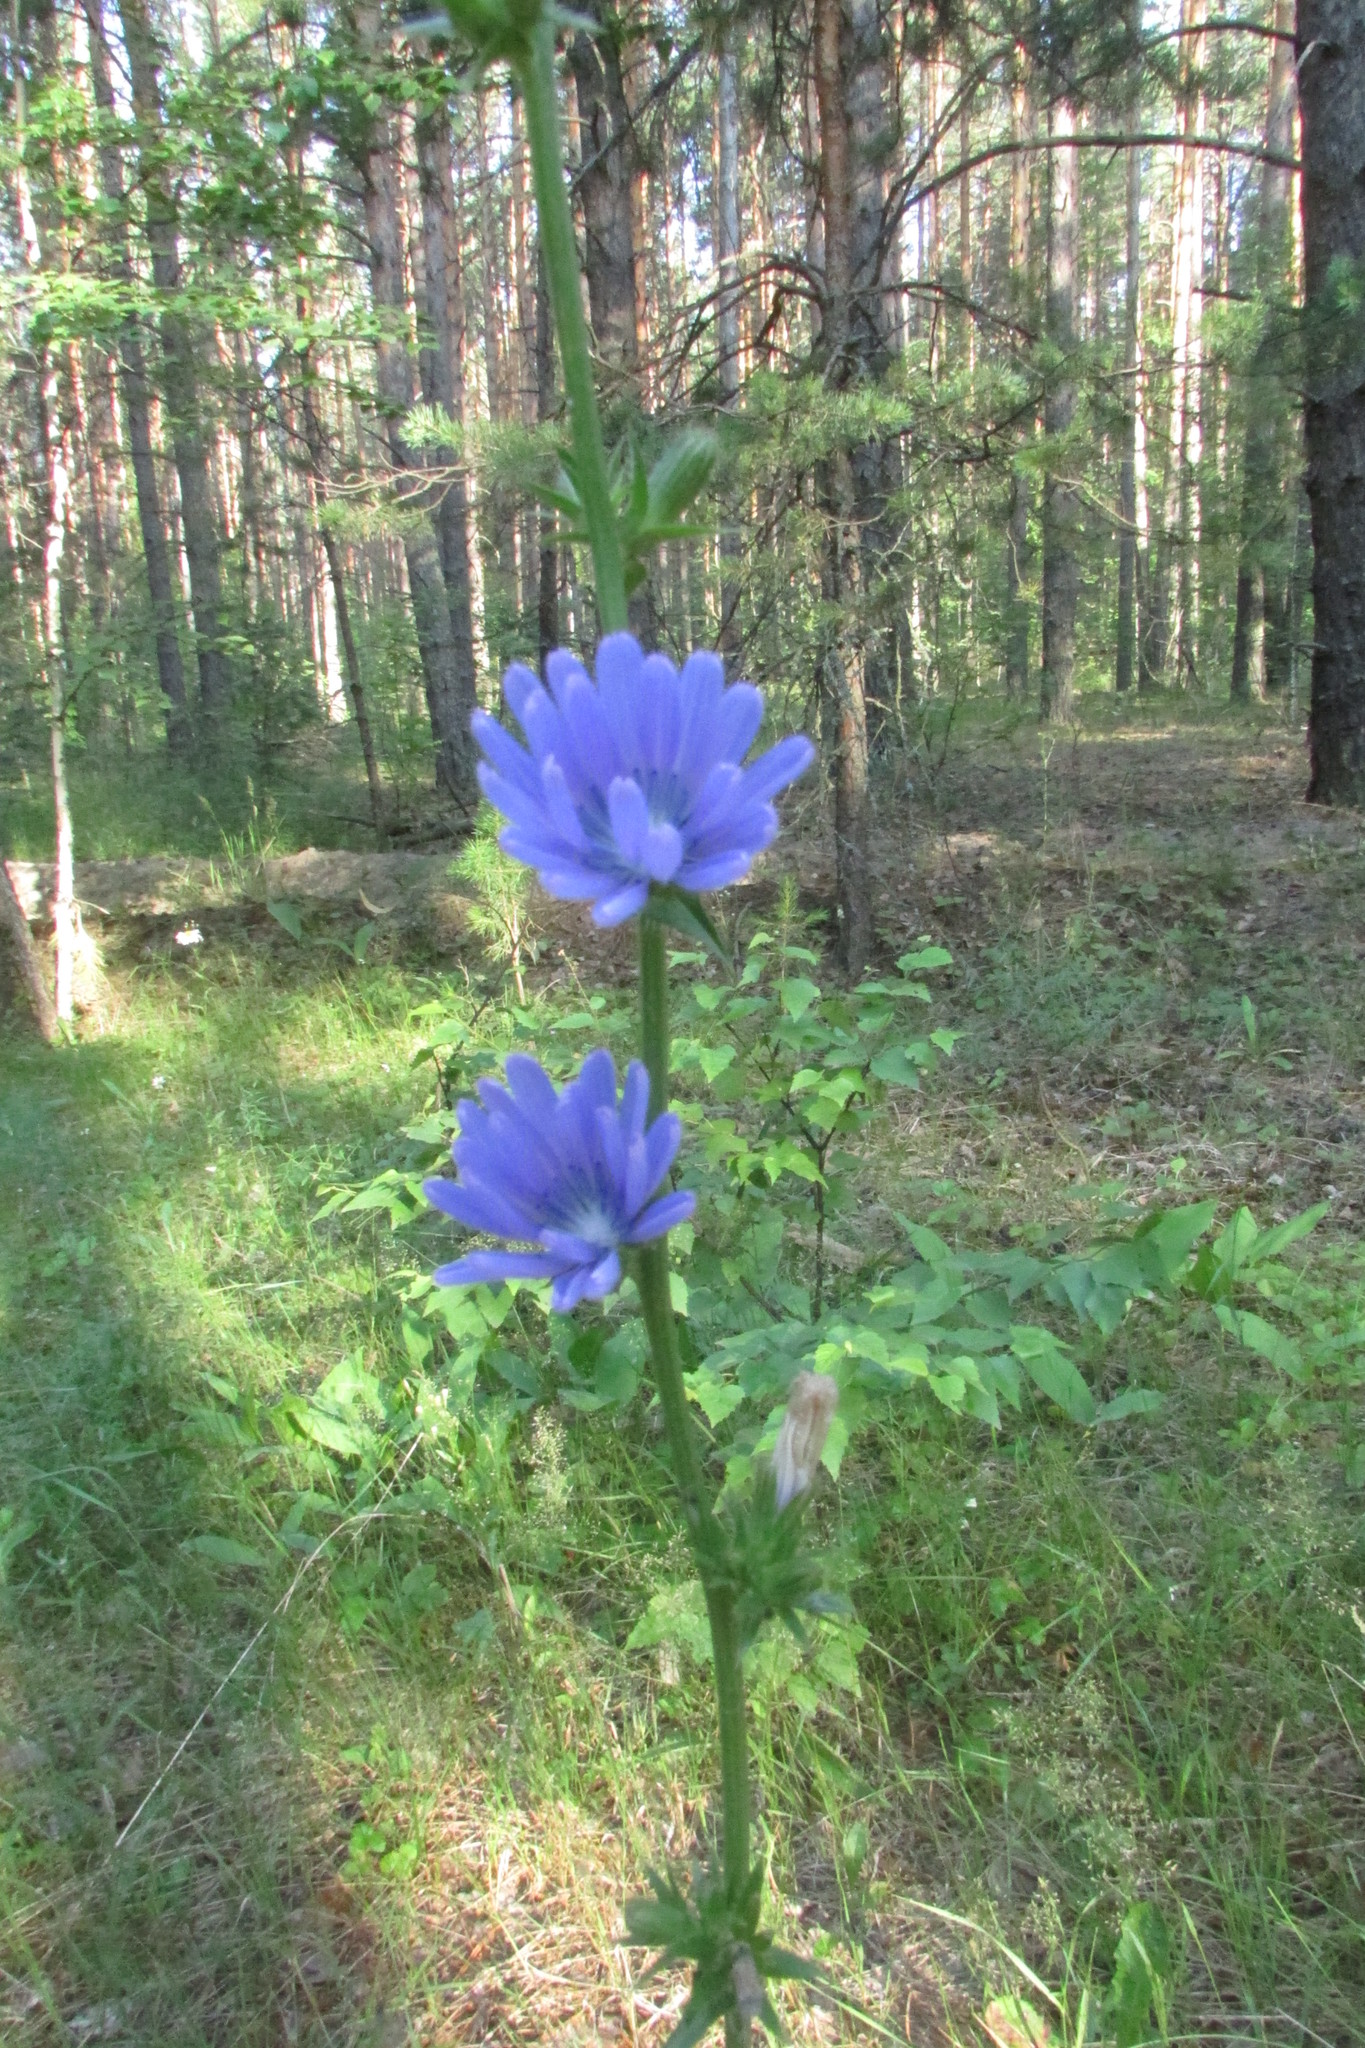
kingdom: Plantae
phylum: Tracheophyta
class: Magnoliopsida
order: Asterales
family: Asteraceae
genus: Cichorium
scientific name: Cichorium intybus
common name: Chicory
